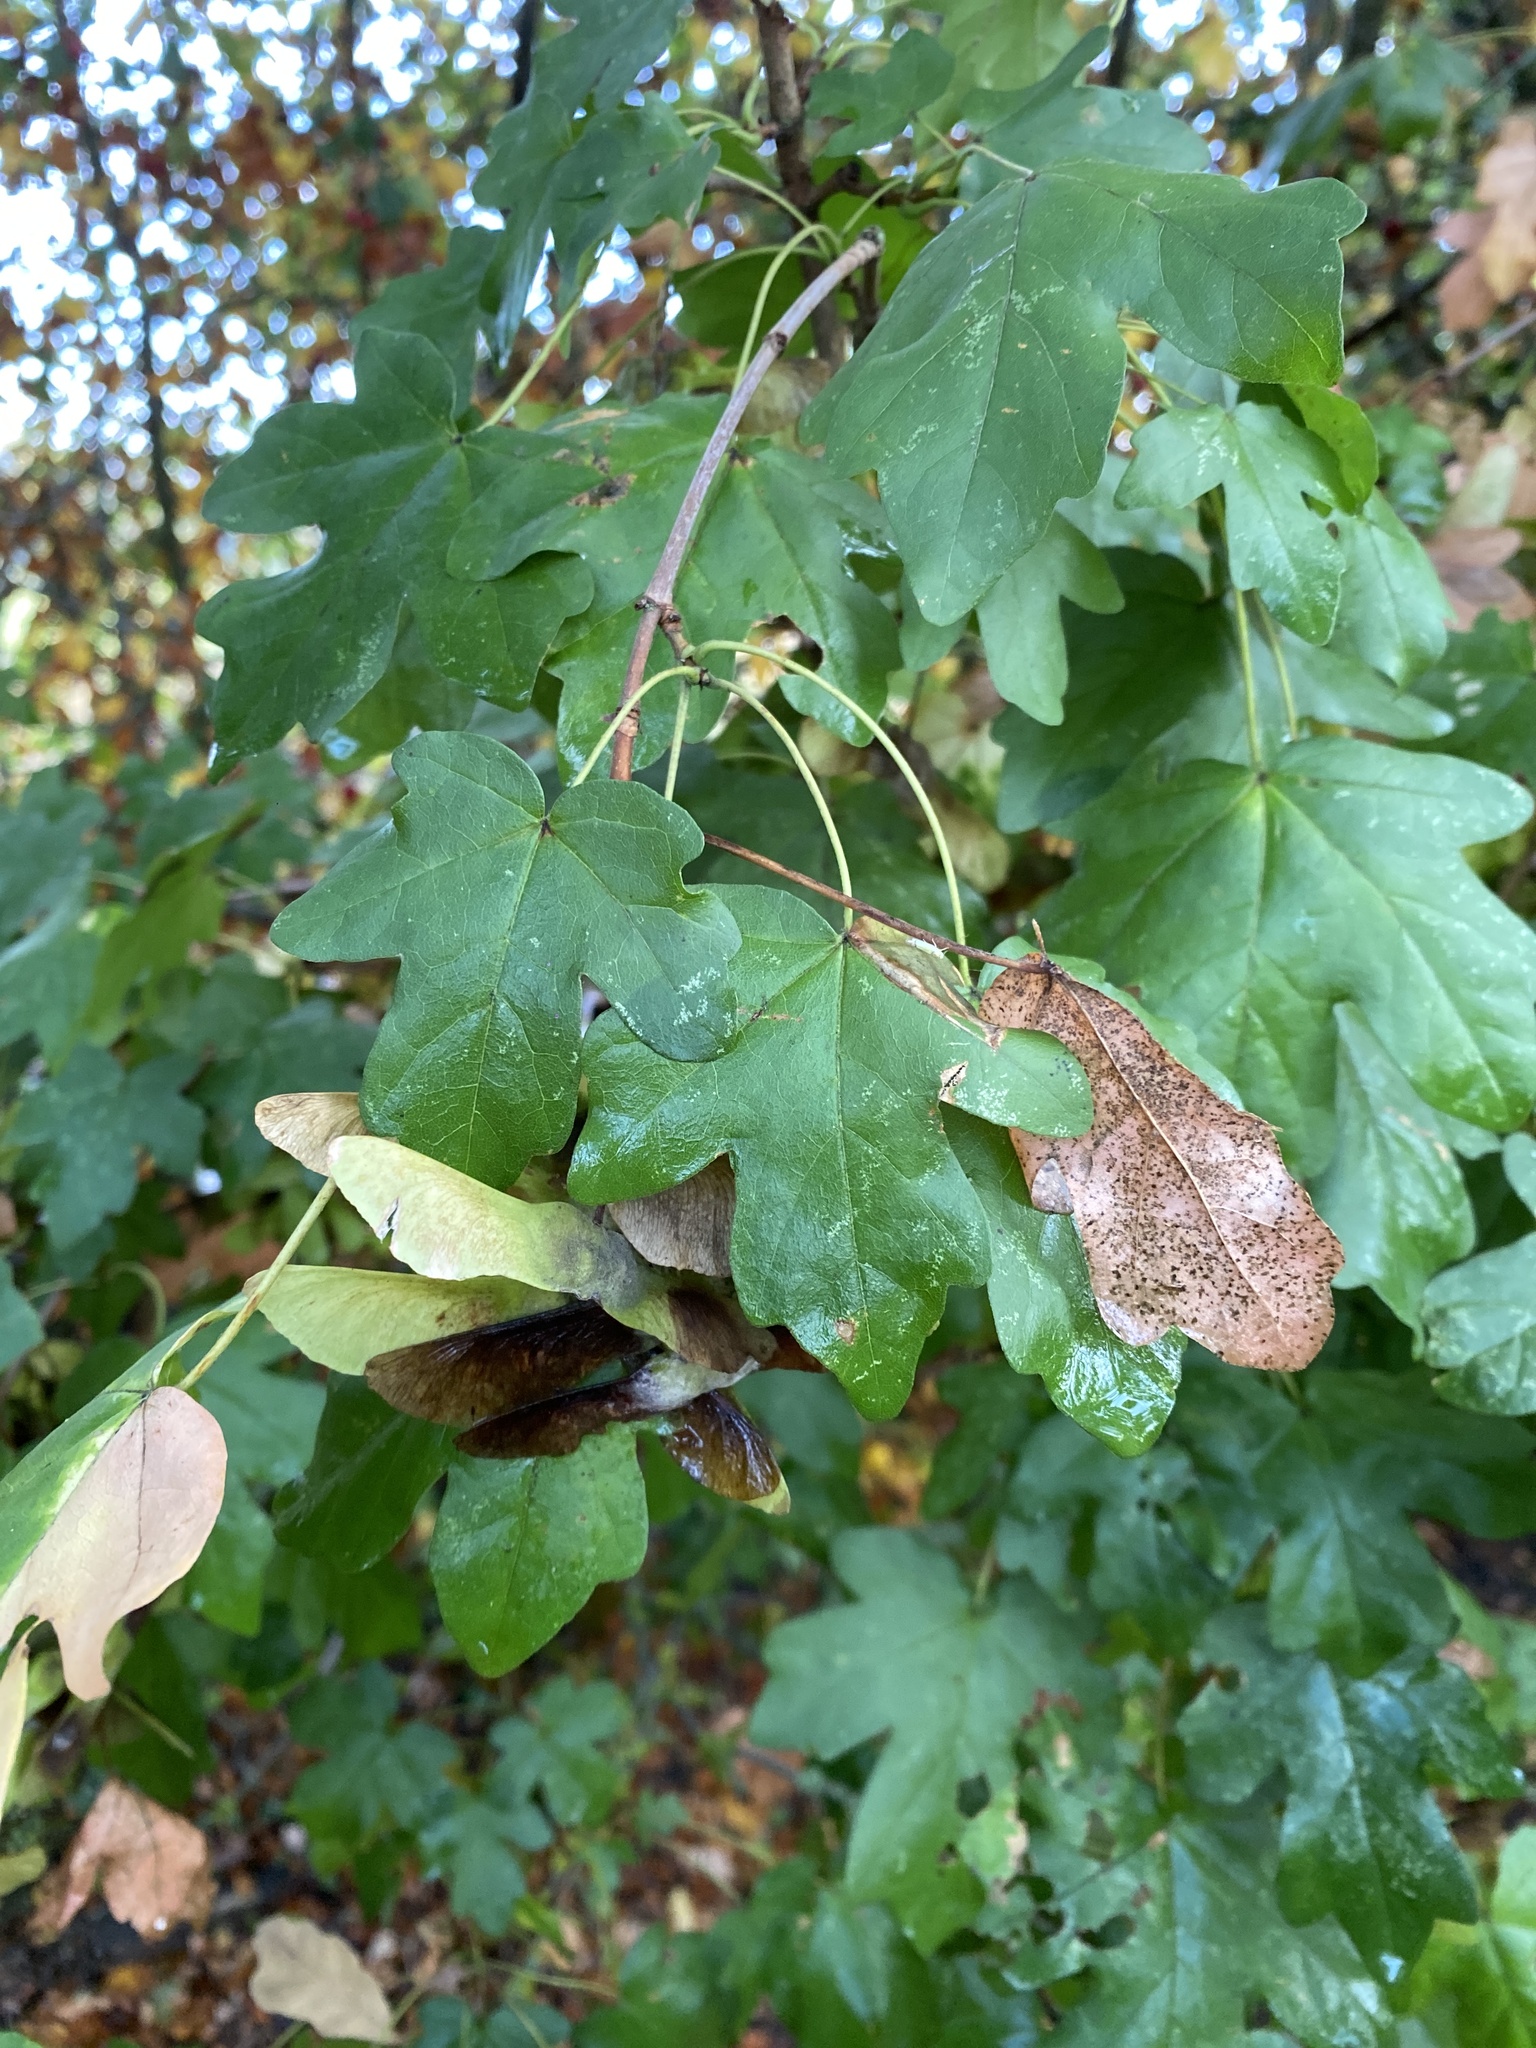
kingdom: Plantae
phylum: Tracheophyta
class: Magnoliopsida
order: Sapindales
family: Sapindaceae
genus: Acer
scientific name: Acer campestre
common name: Field maple
